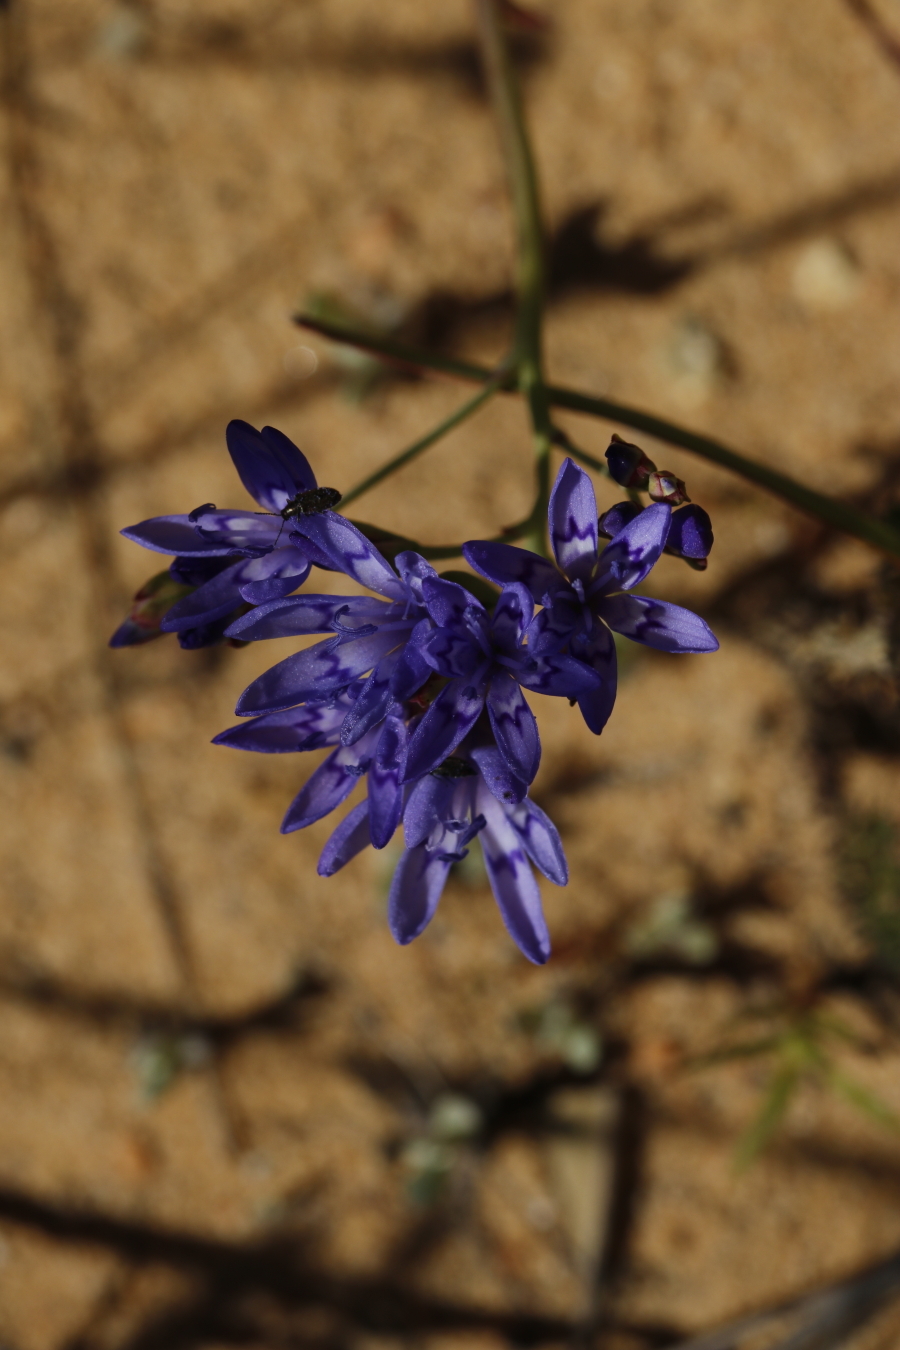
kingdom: Plantae
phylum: Tracheophyta
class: Liliopsida
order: Asparagales
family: Iridaceae
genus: Codonorhiza
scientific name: Codonorhiza corymbosa
